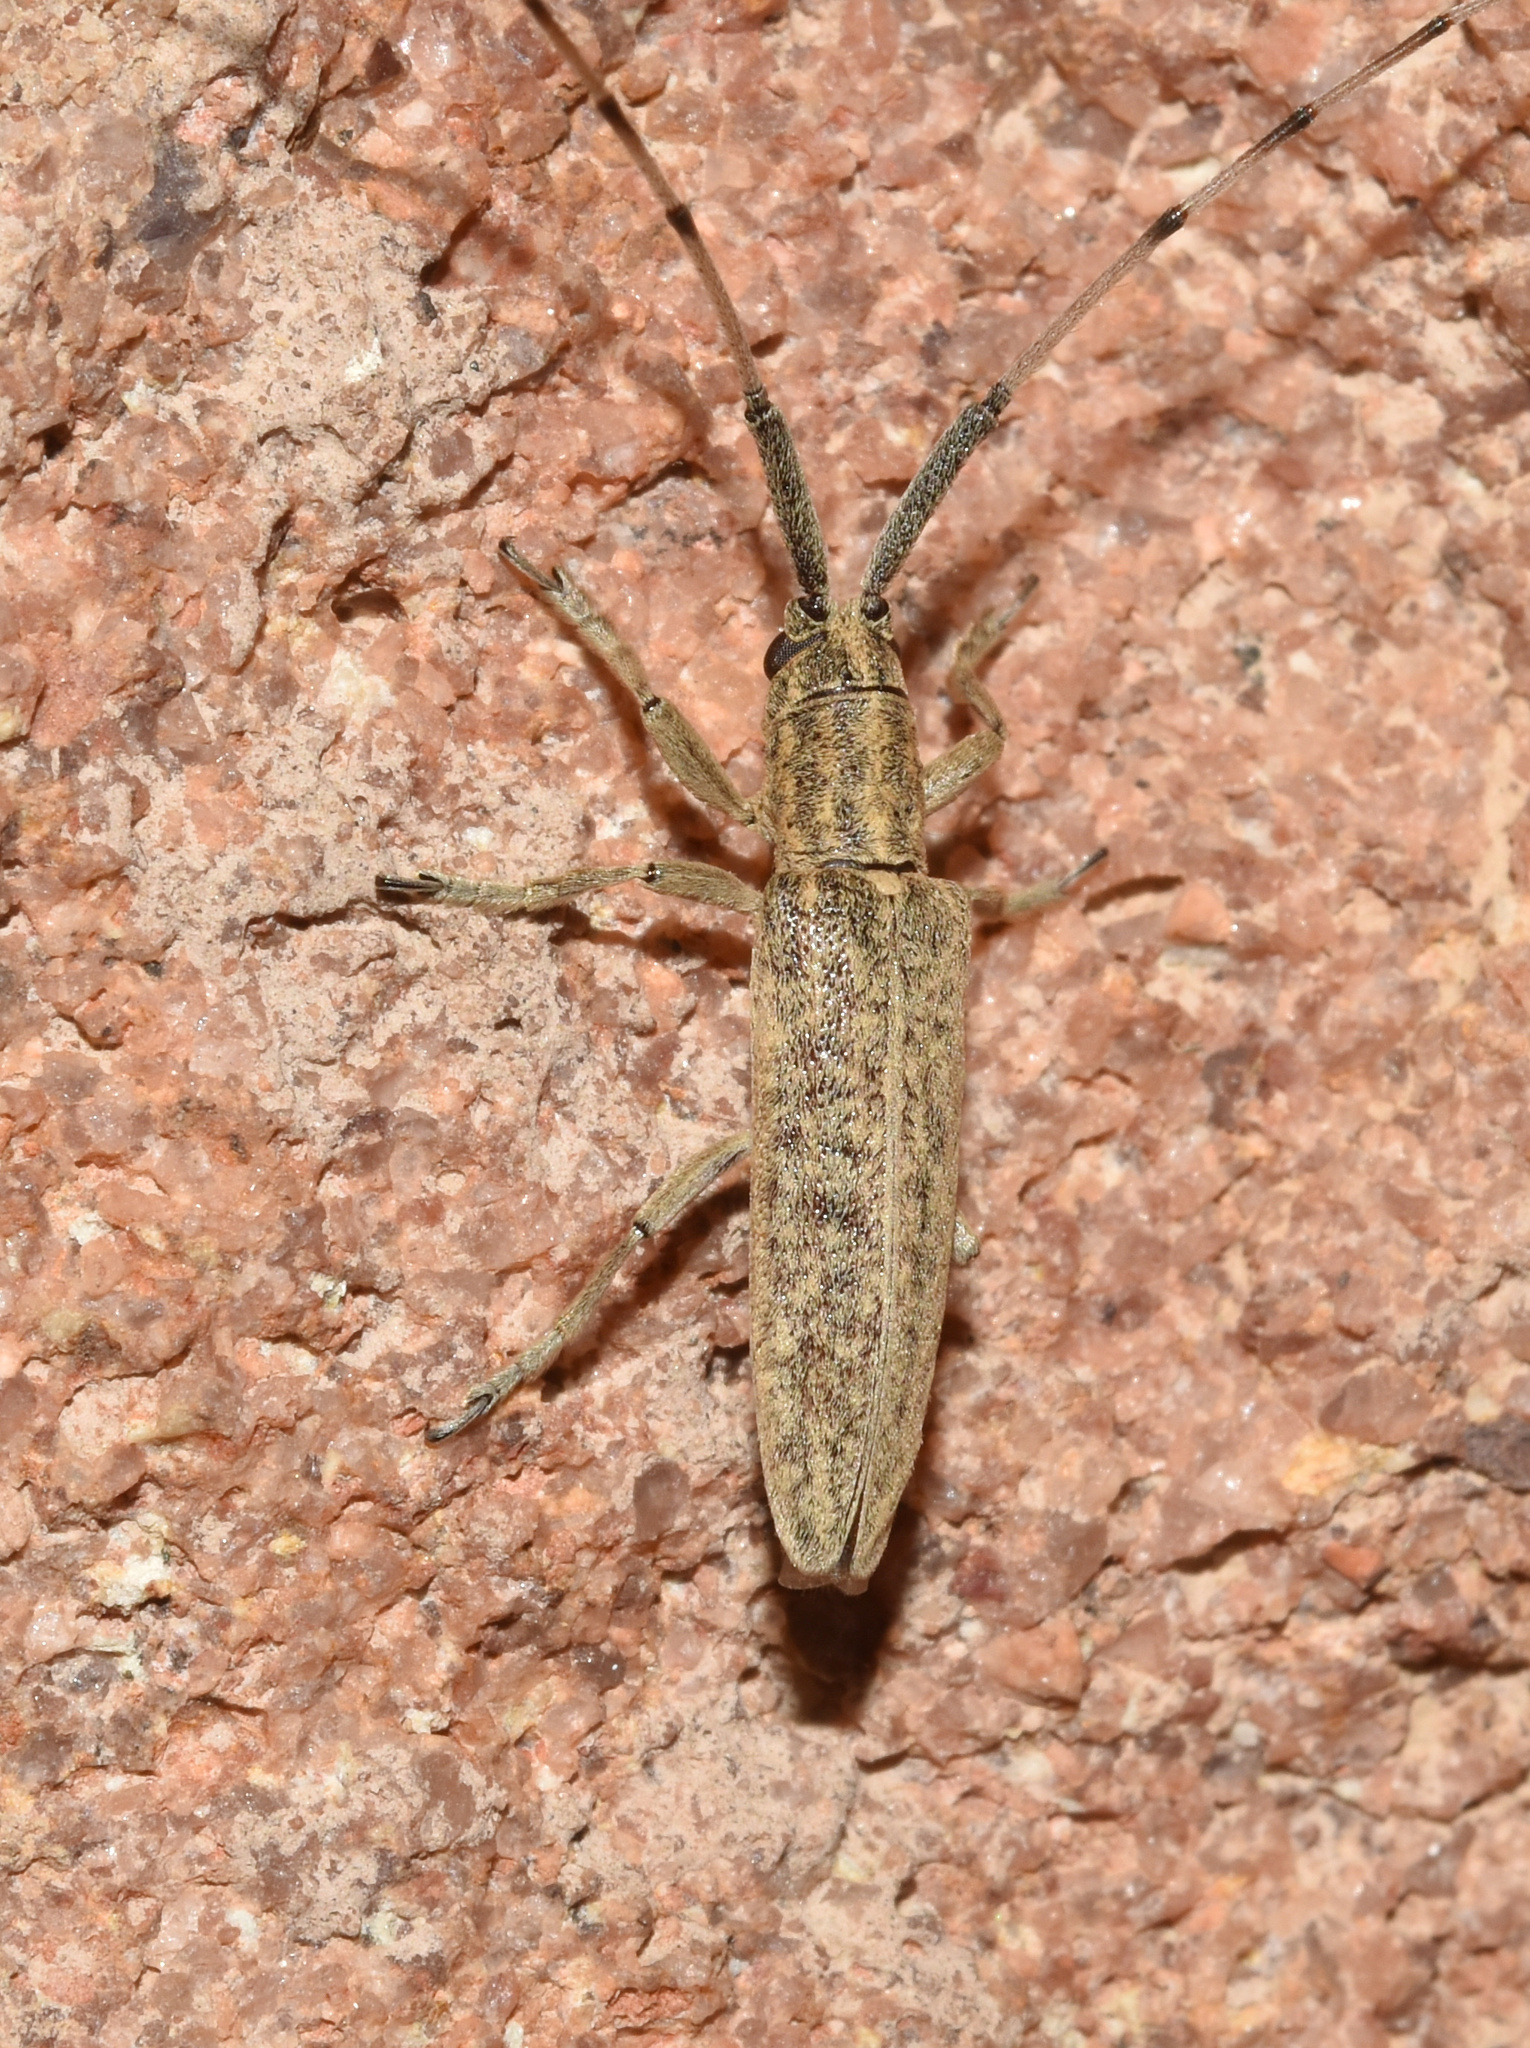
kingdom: Animalia
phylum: Arthropoda
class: Insecta
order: Coleoptera
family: Cerambycidae
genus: Hyllisia
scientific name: Hyllisia stenideoides
